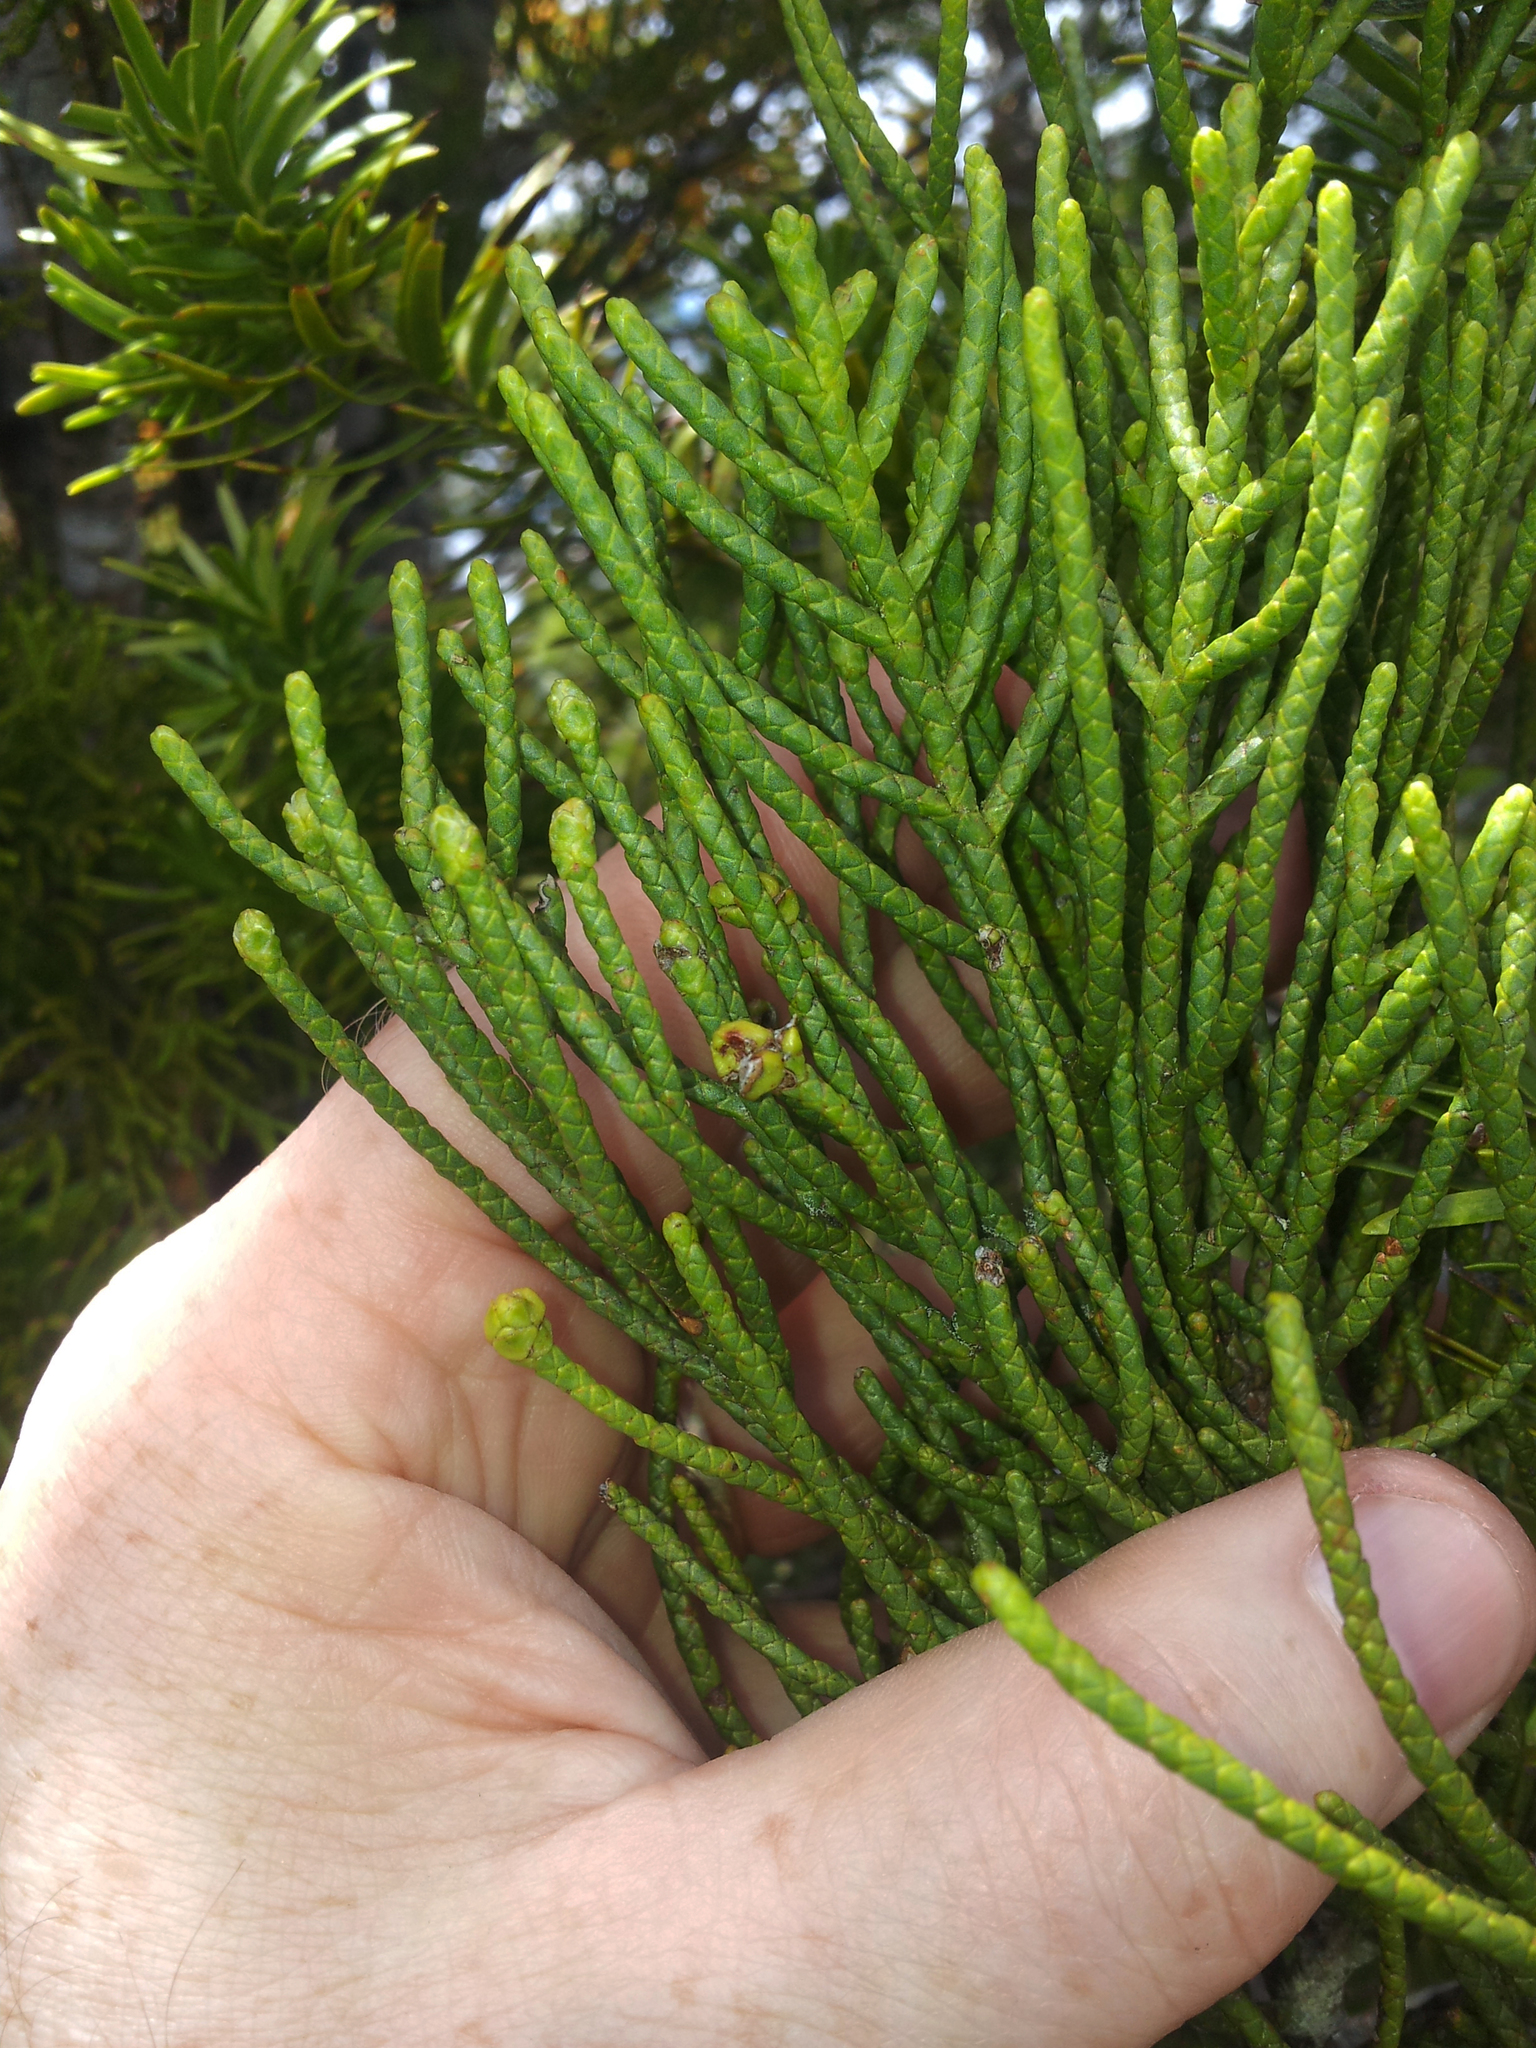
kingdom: Plantae
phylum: Tracheophyta
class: Pinopsida
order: Pinales
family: Podocarpaceae
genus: Halocarpus
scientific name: Halocarpus kirkii
